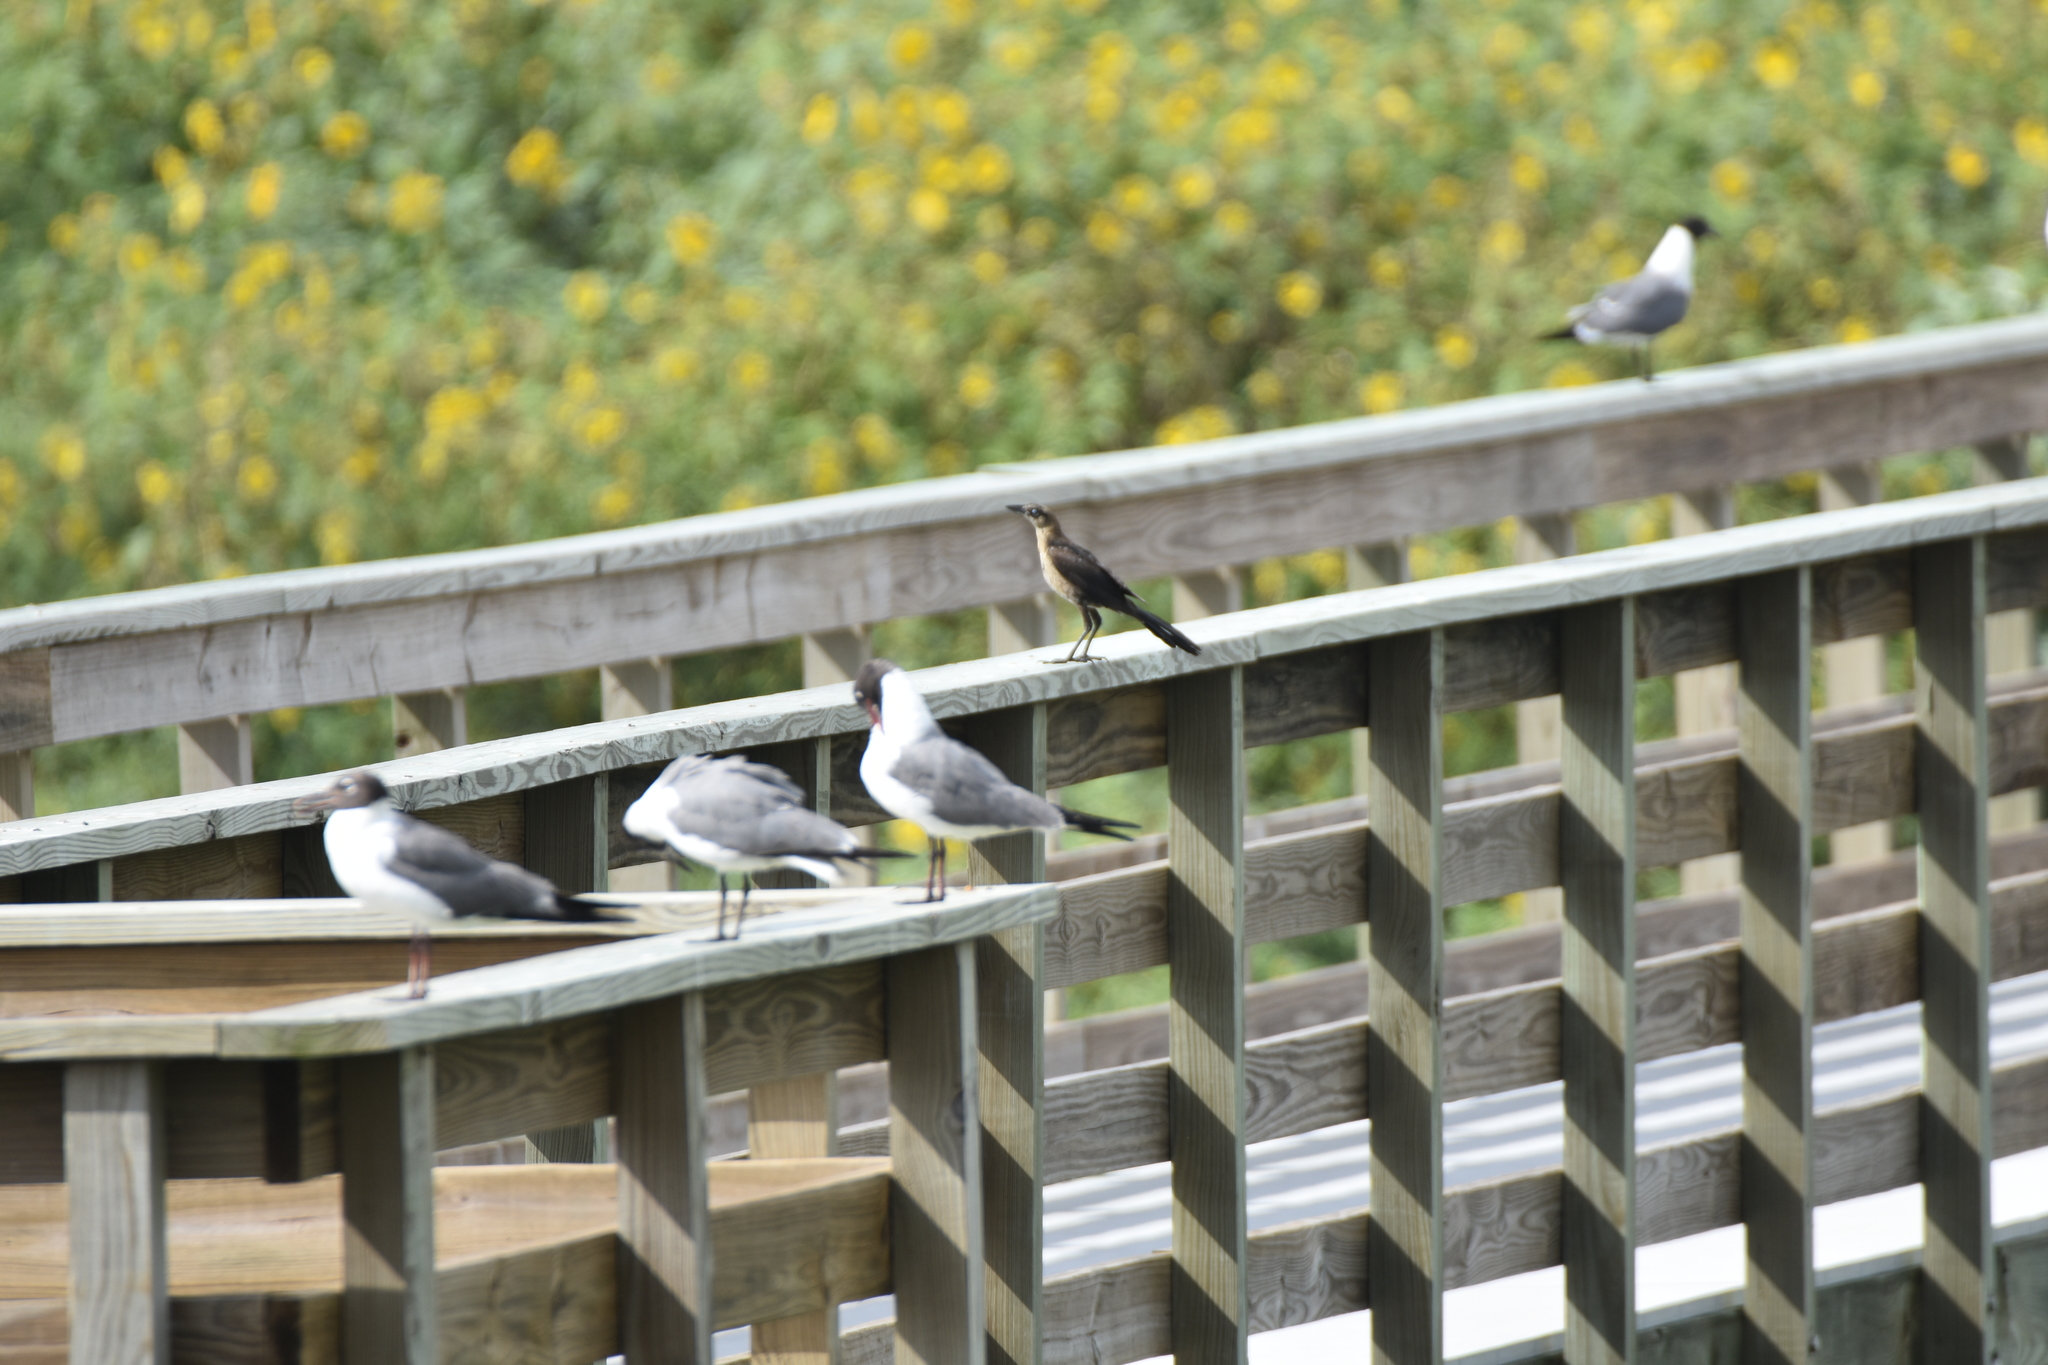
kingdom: Animalia
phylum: Chordata
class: Aves
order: Charadriiformes
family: Laridae
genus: Leucophaeus
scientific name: Leucophaeus atricilla
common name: Laughing gull
